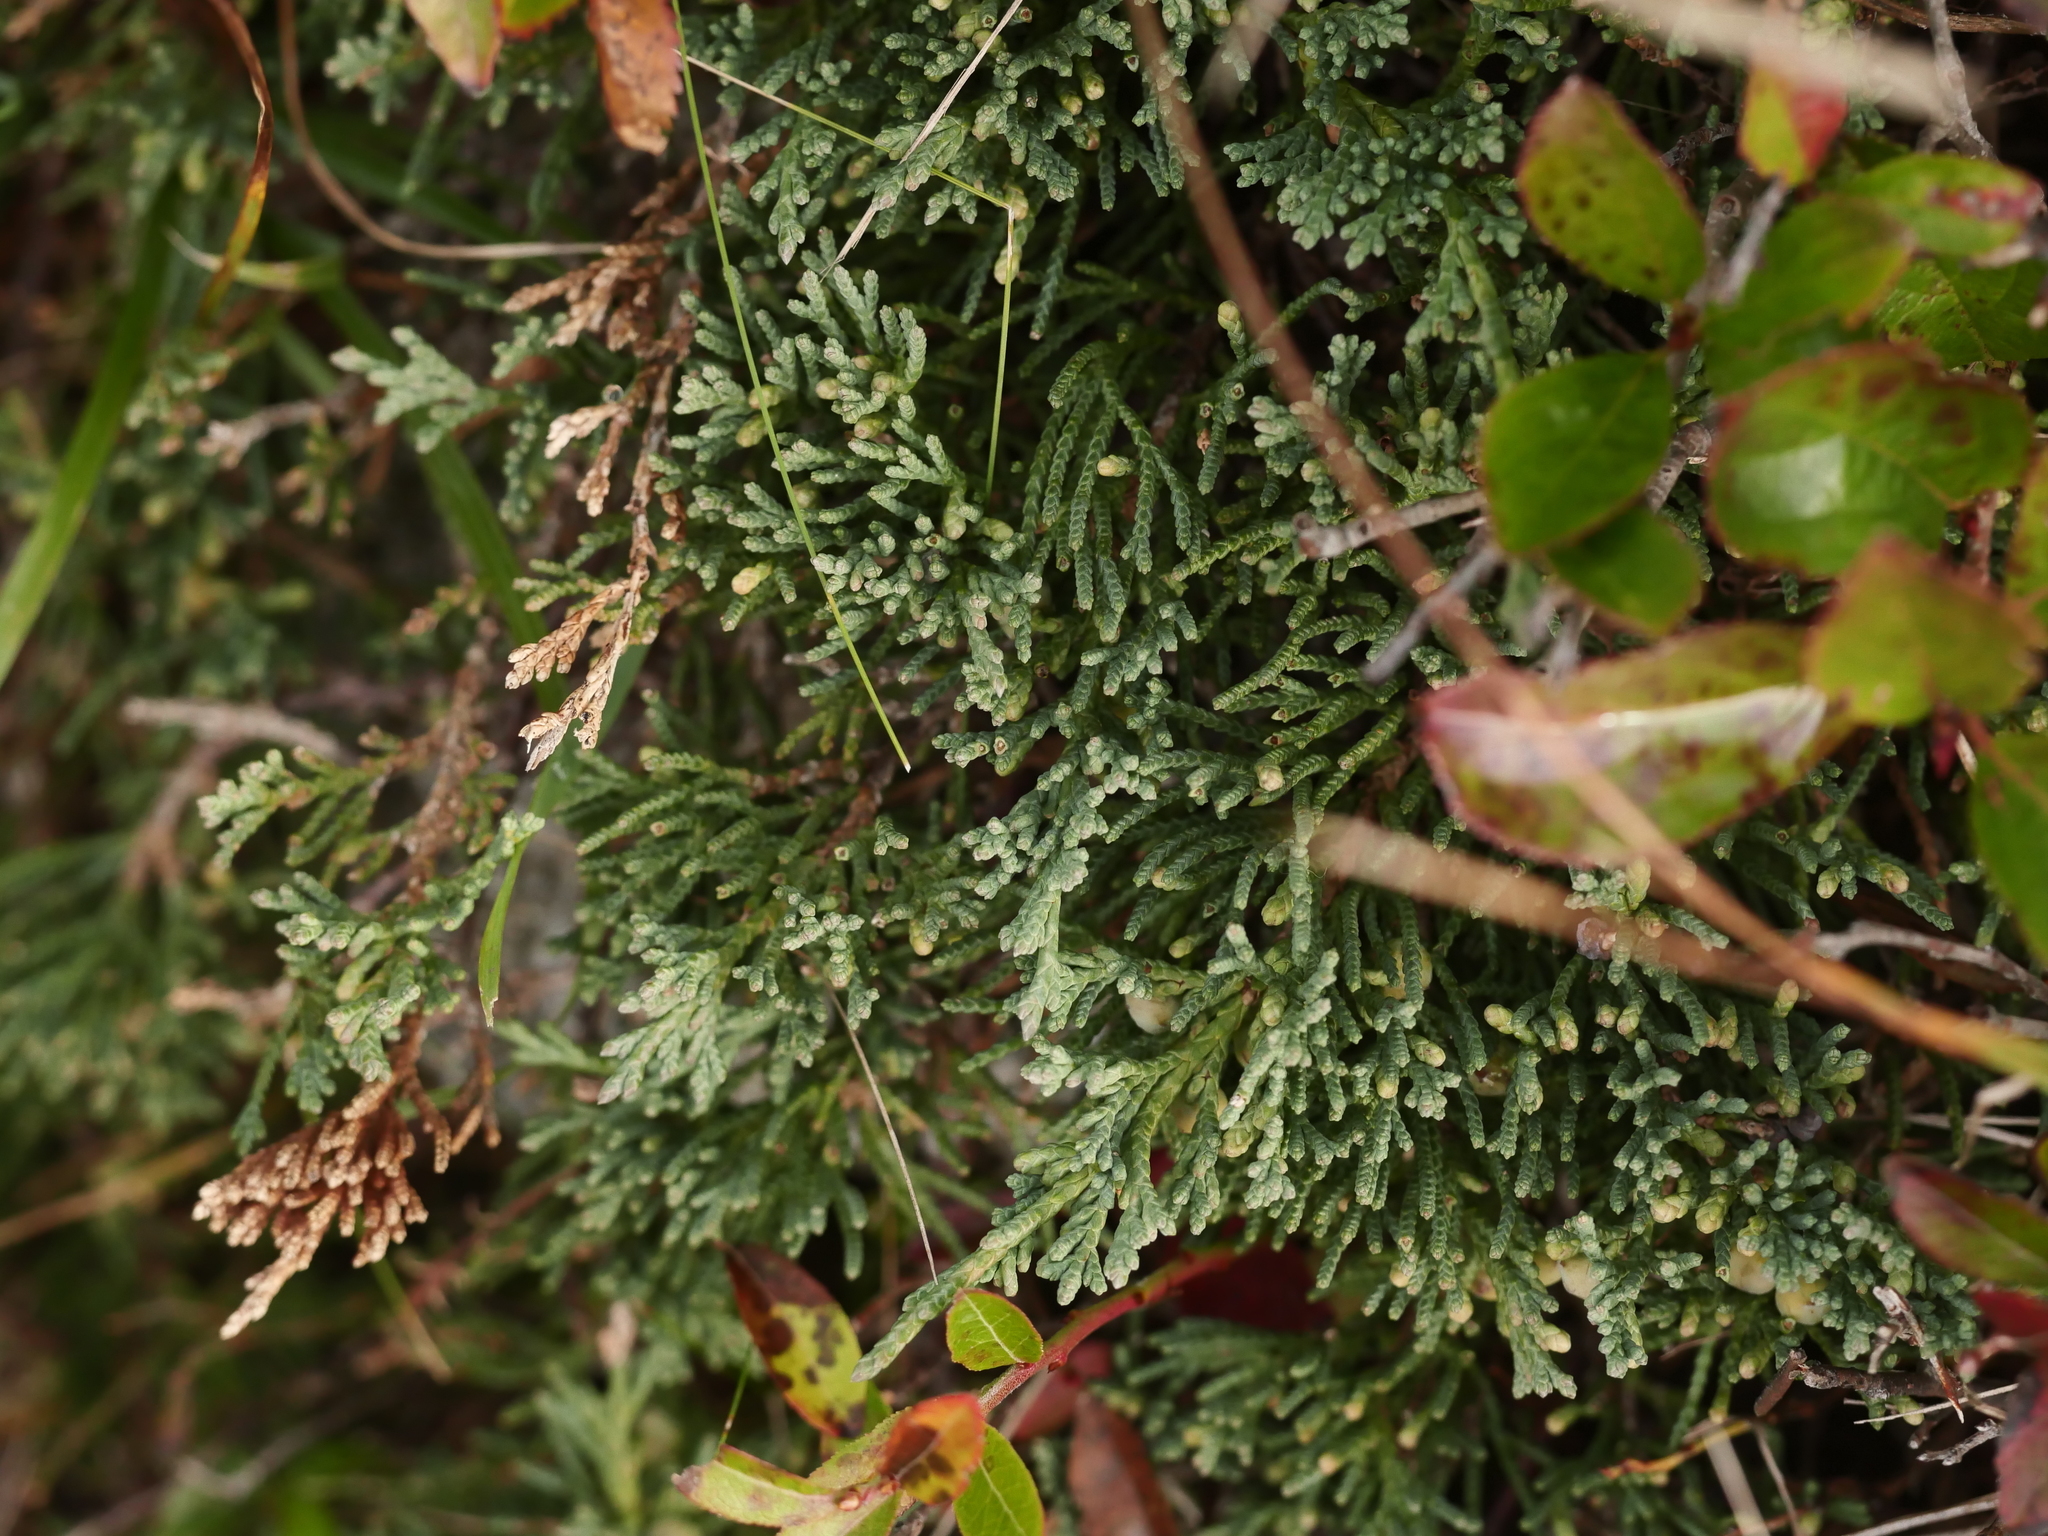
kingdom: Plantae
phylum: Tracheophyta
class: Pinopsida
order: Pinales
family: Cupressaceae
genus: Juniperus
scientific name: Juniperus horizontalis
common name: Creeping juniper
